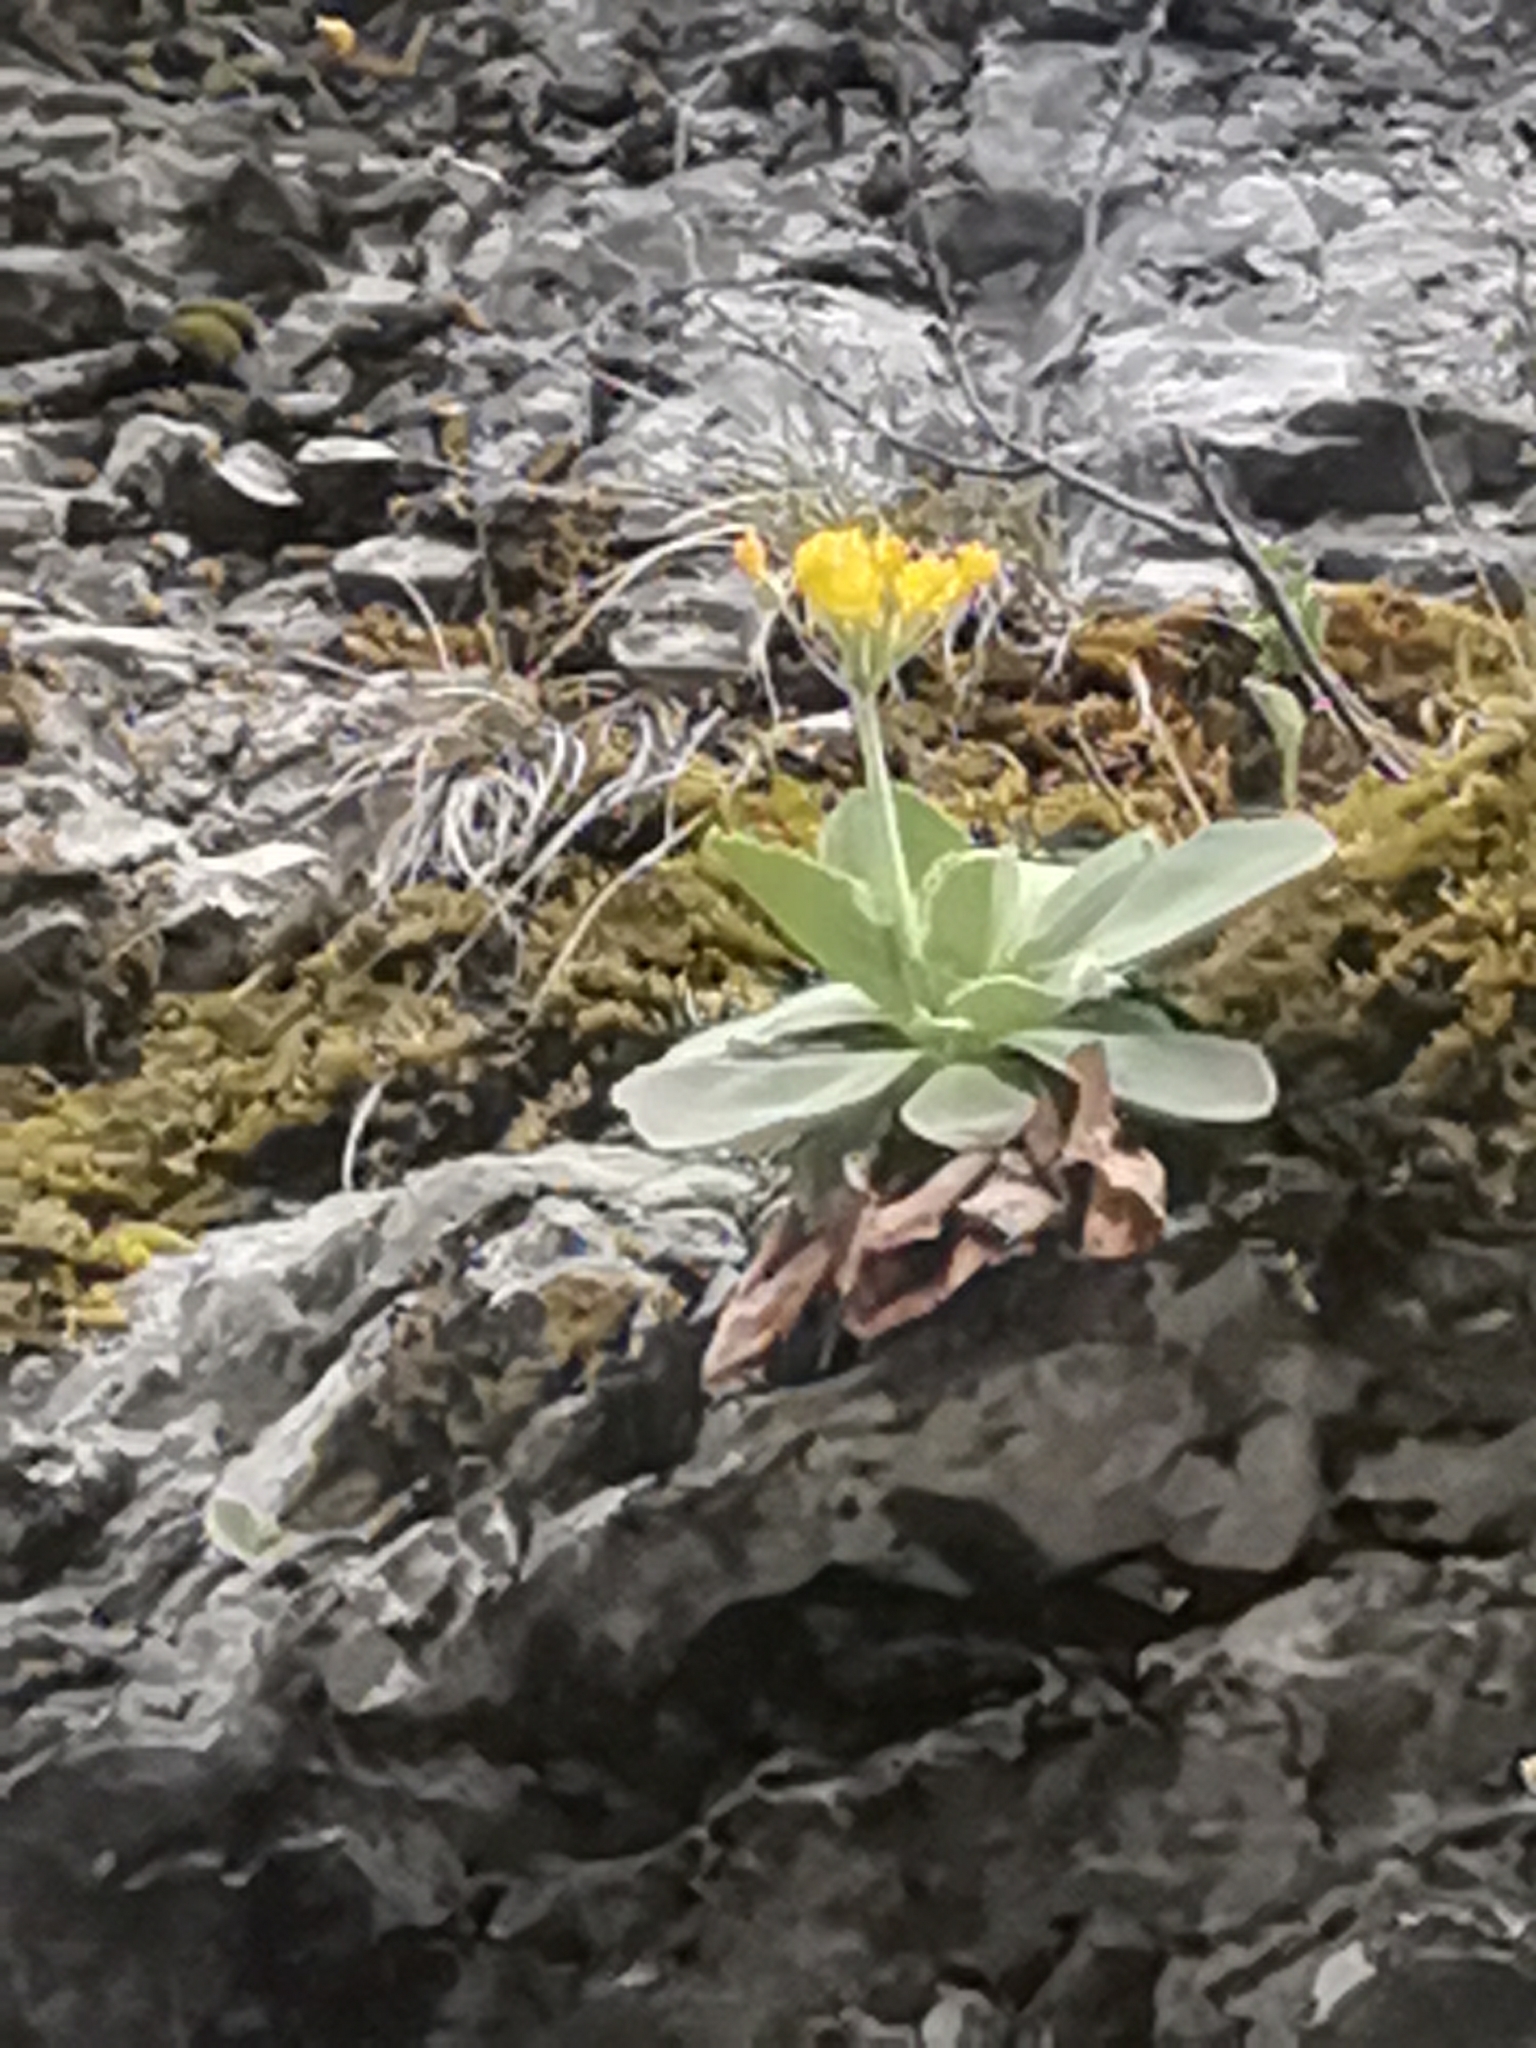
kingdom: Plantae
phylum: Tracheophyta
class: Magnoliopsida
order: Ericales
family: Primulaceae
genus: Primula
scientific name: Primula auricula
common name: Auricula
